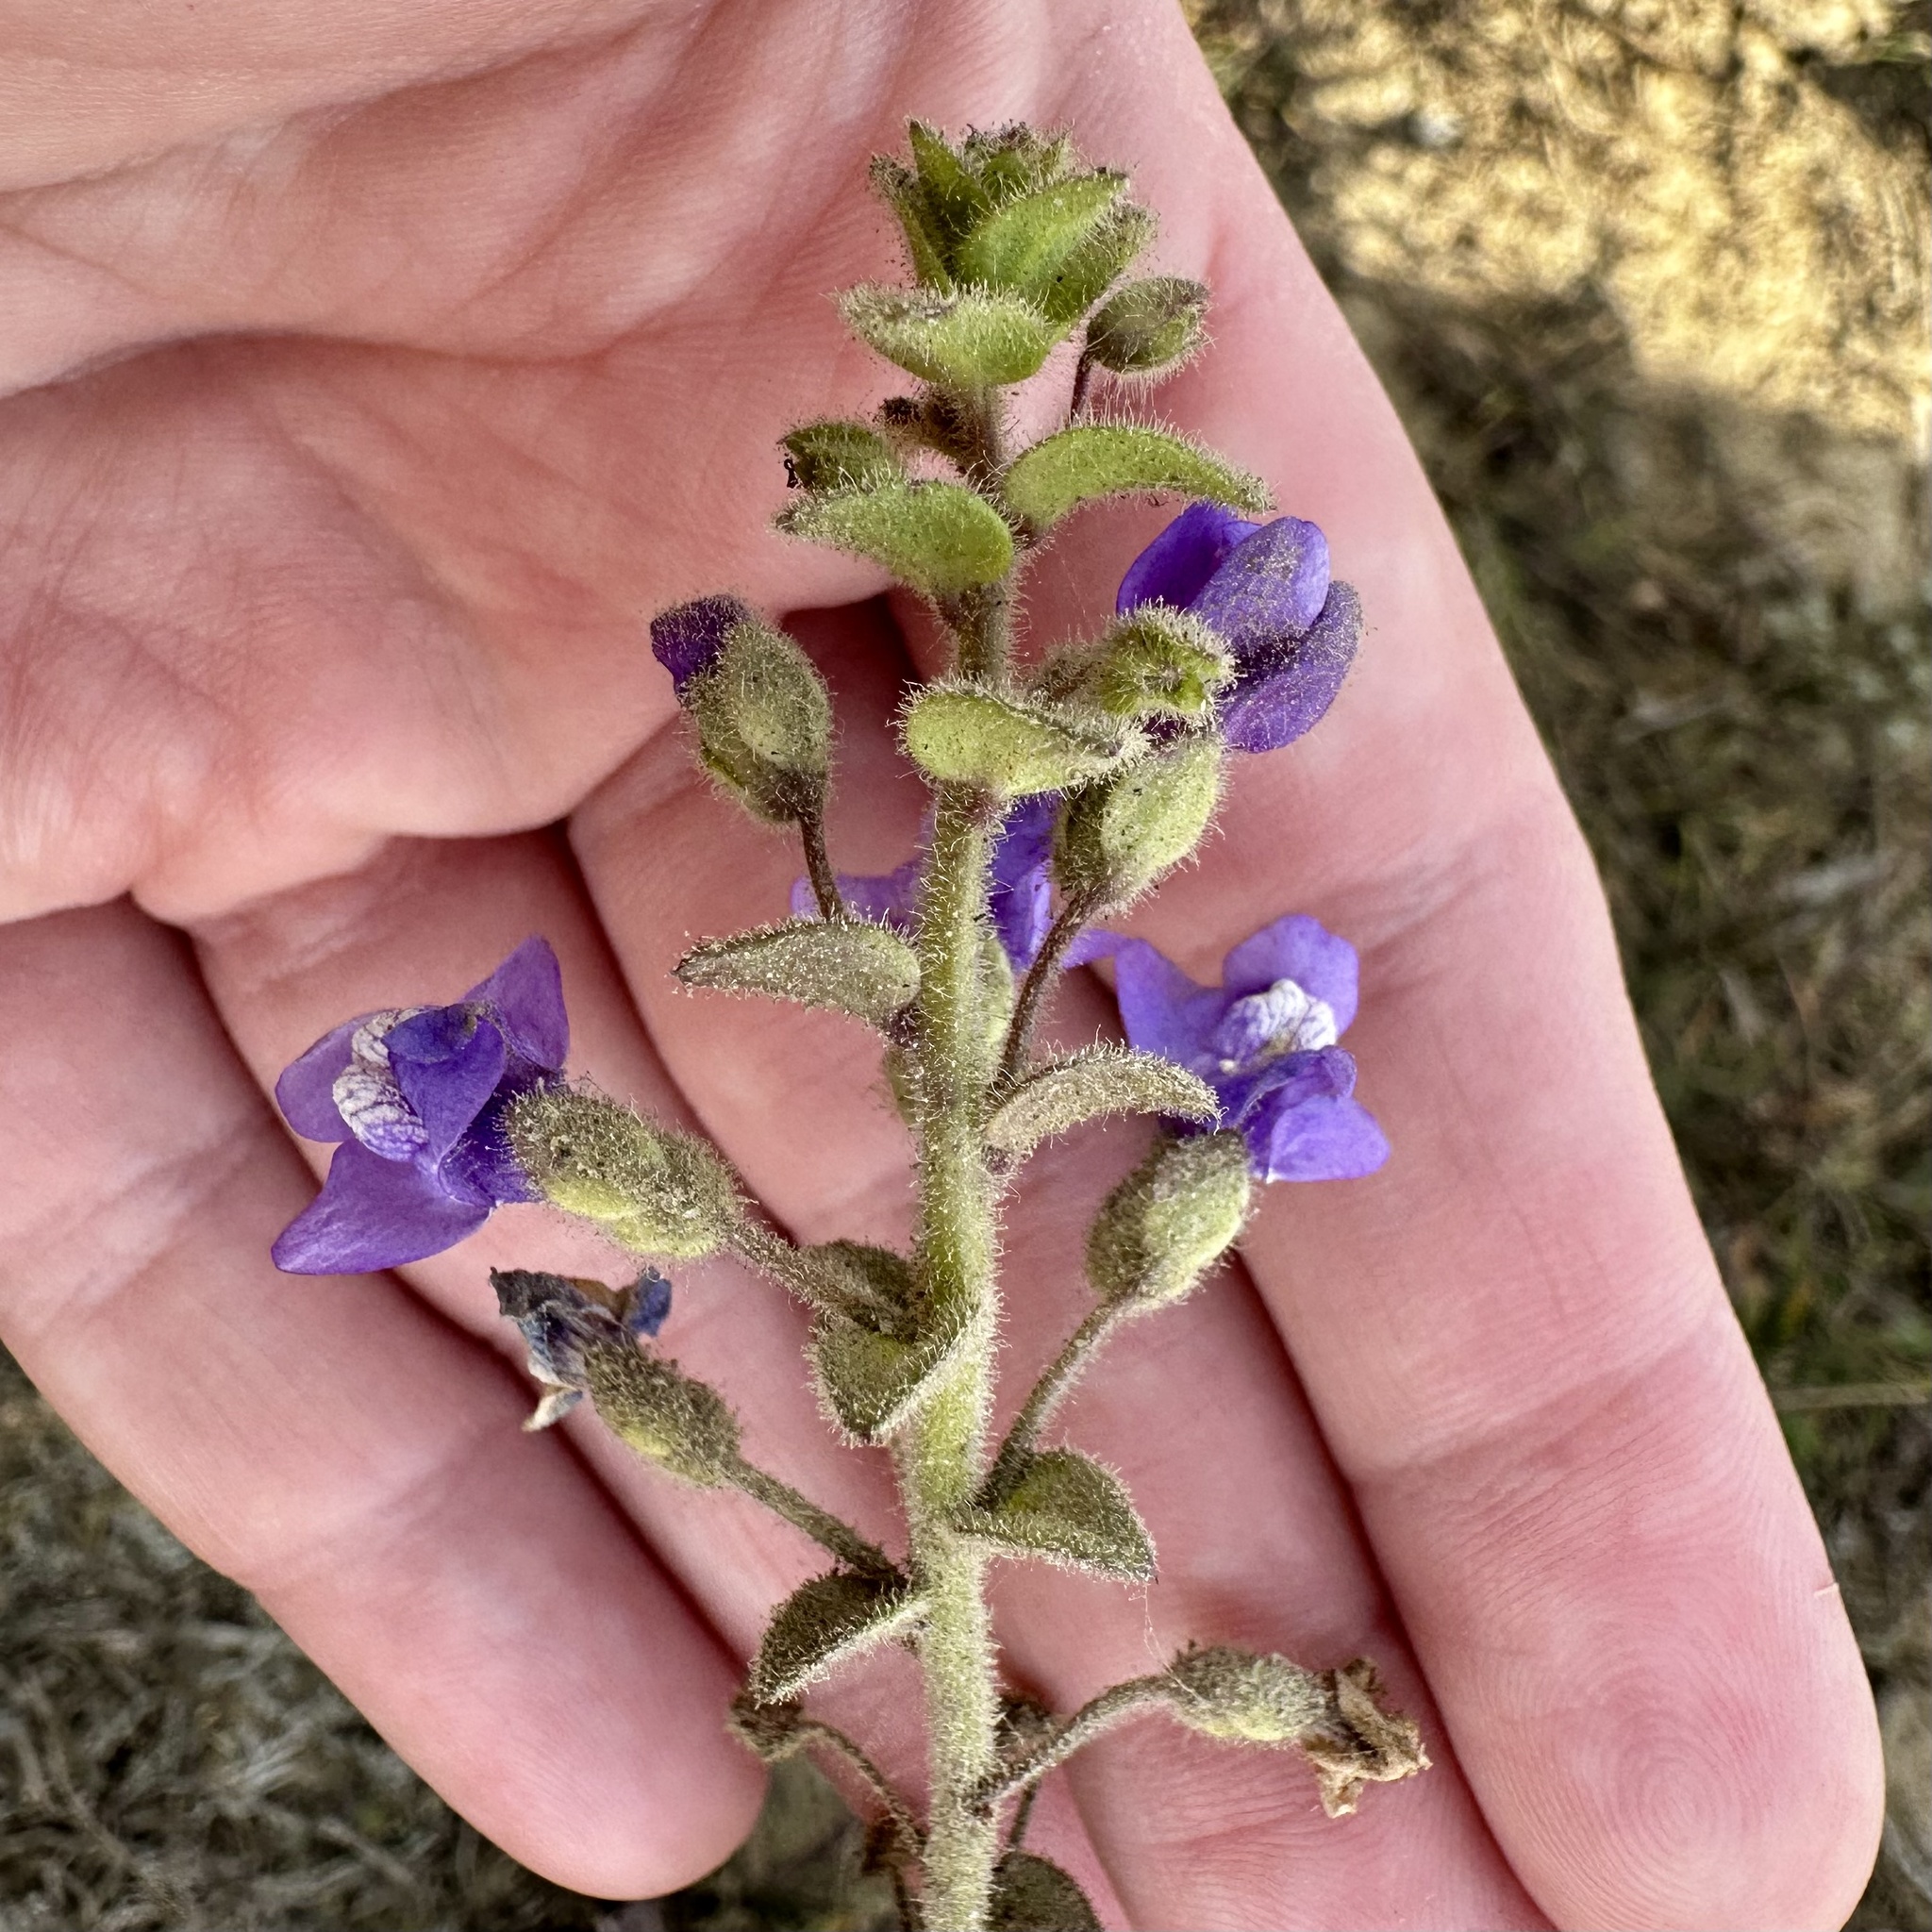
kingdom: Plantae
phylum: Tracheophyta
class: Magnoliopsida
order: Lamiales
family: Plantaginaceae
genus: Sairocarpus
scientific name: Sairocarpus nuttallianus
